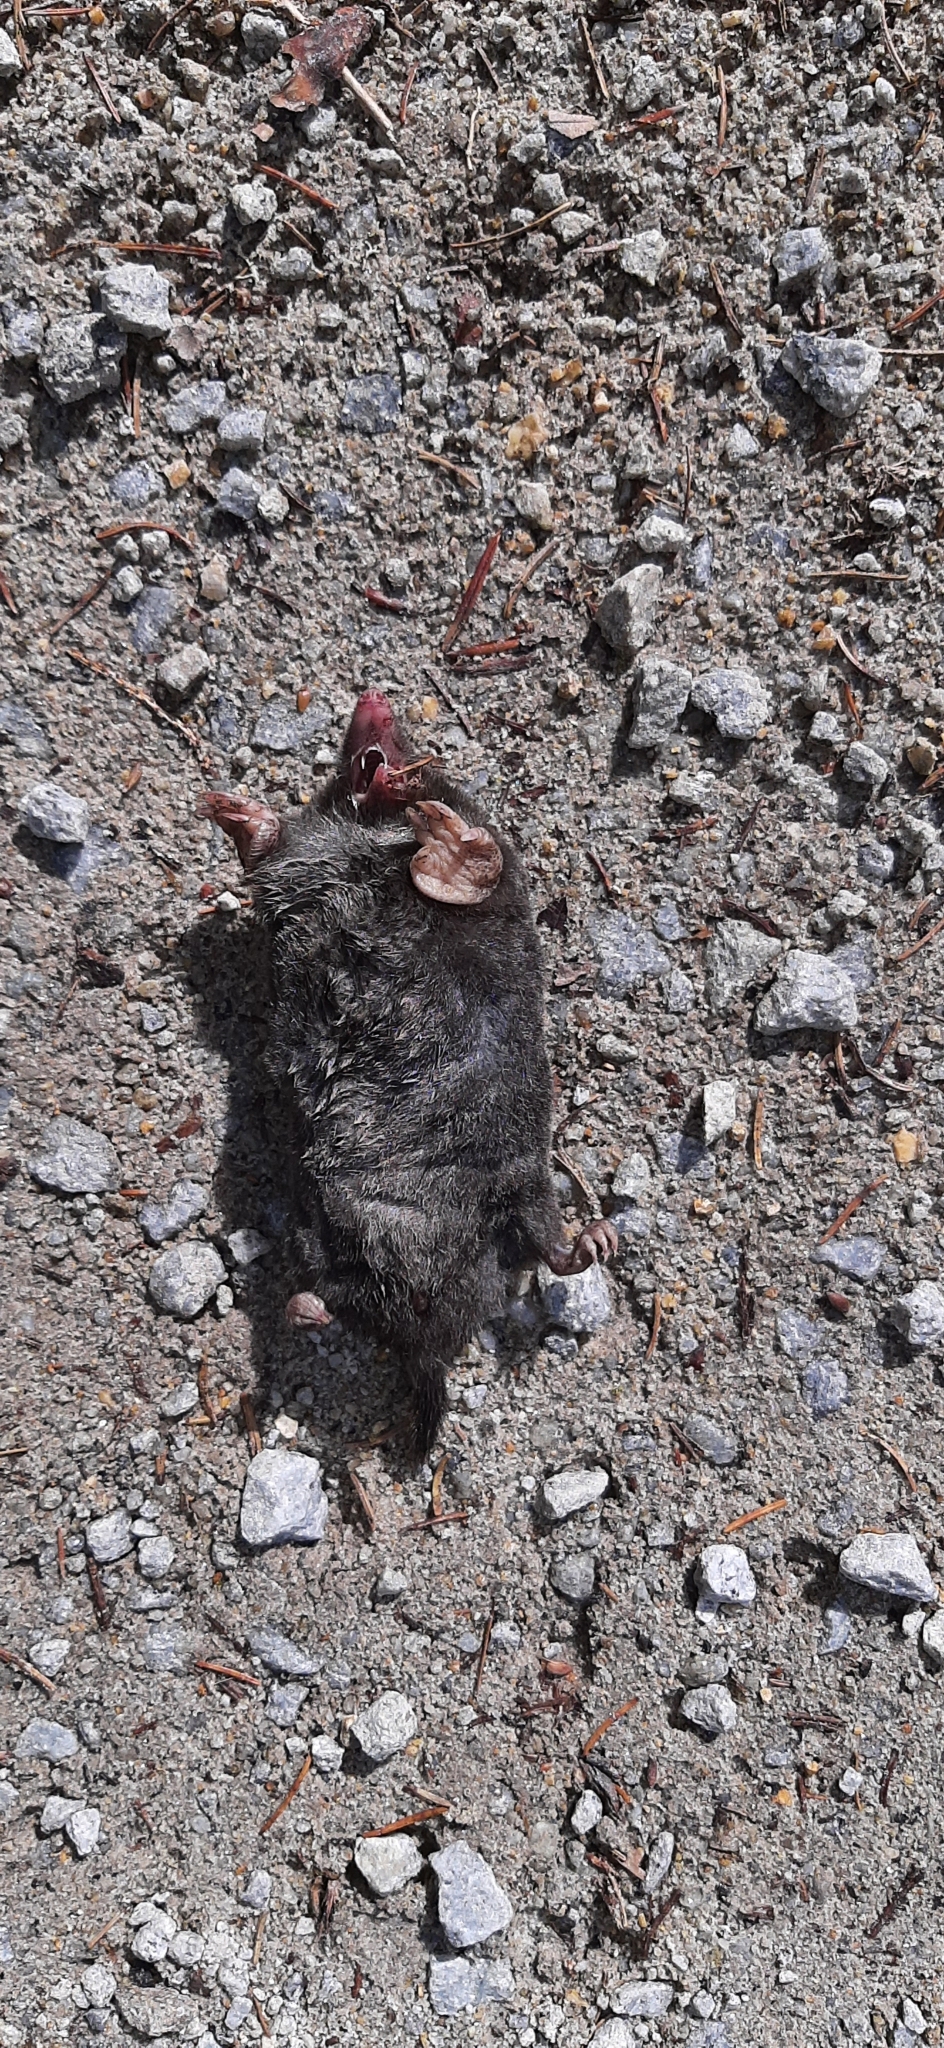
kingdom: Animalia
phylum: Chordata
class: Mammalia
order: Soricomorpha
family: Talpidae
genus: Talpa
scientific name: Talpa europaea
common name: European mole
